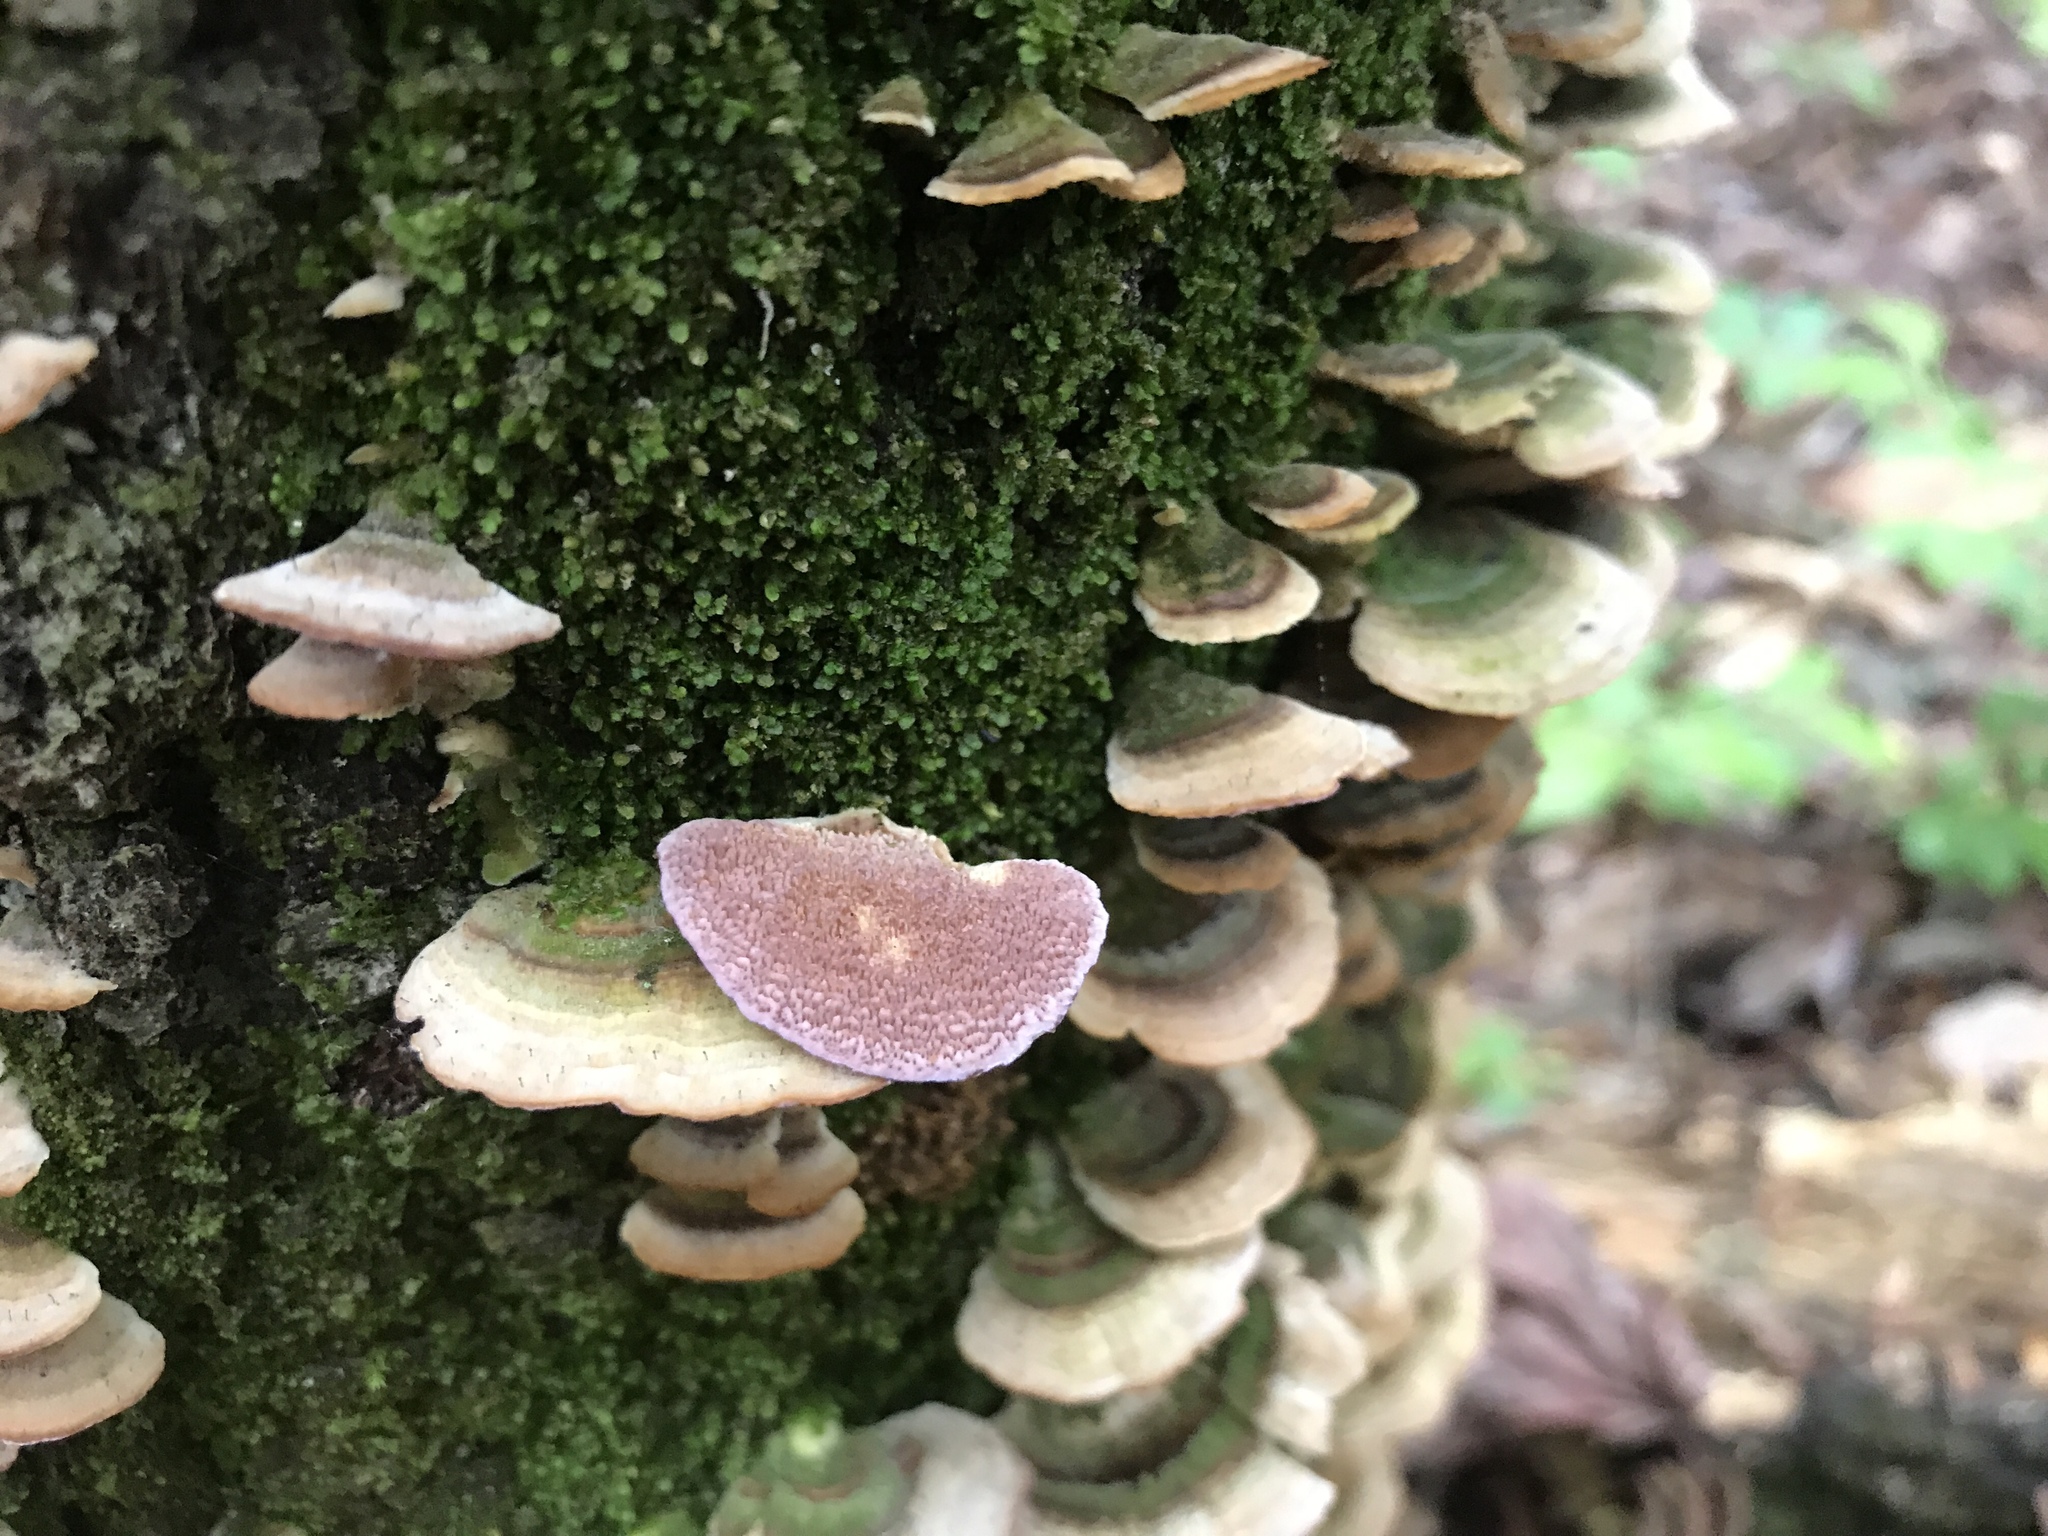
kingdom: Fungi
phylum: Basidiomycota
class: Agaricomycetes
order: Hymenochaetales
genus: Trichaptum
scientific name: Trichaptum biforme
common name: Violet-toothed polypore
